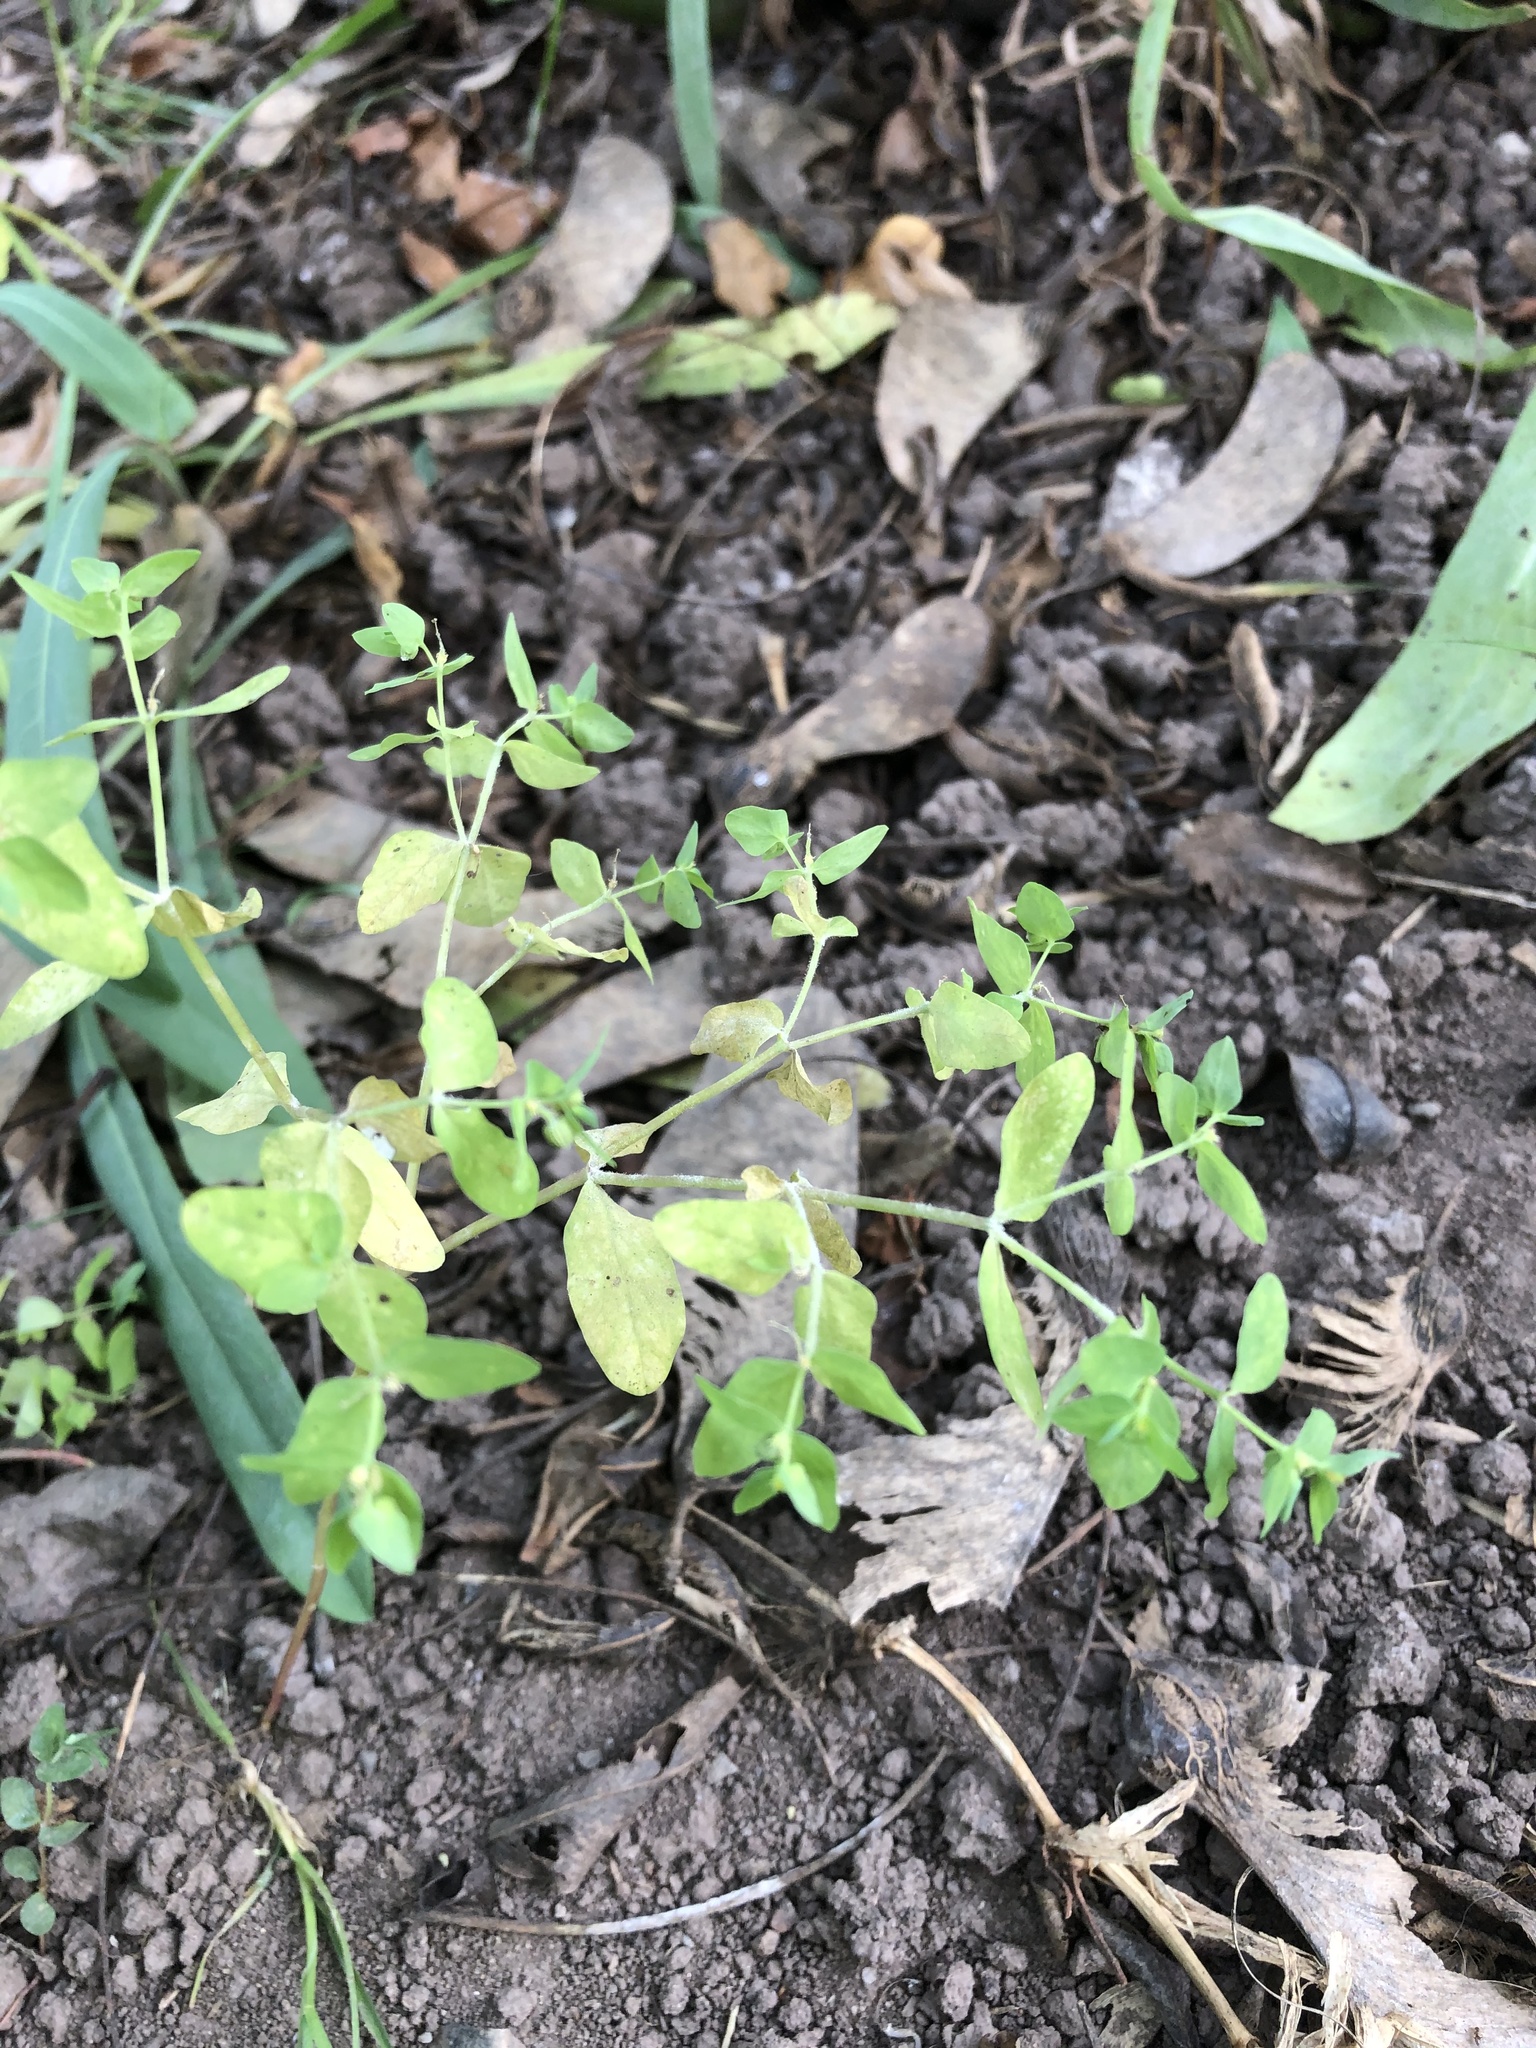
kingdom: Plantae
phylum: Tracheophyta
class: Magnoliopsida
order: Malpighiales
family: Euphorbiaceae
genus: Euphorbia
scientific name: Euphorbia peplus
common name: Petty spurge
